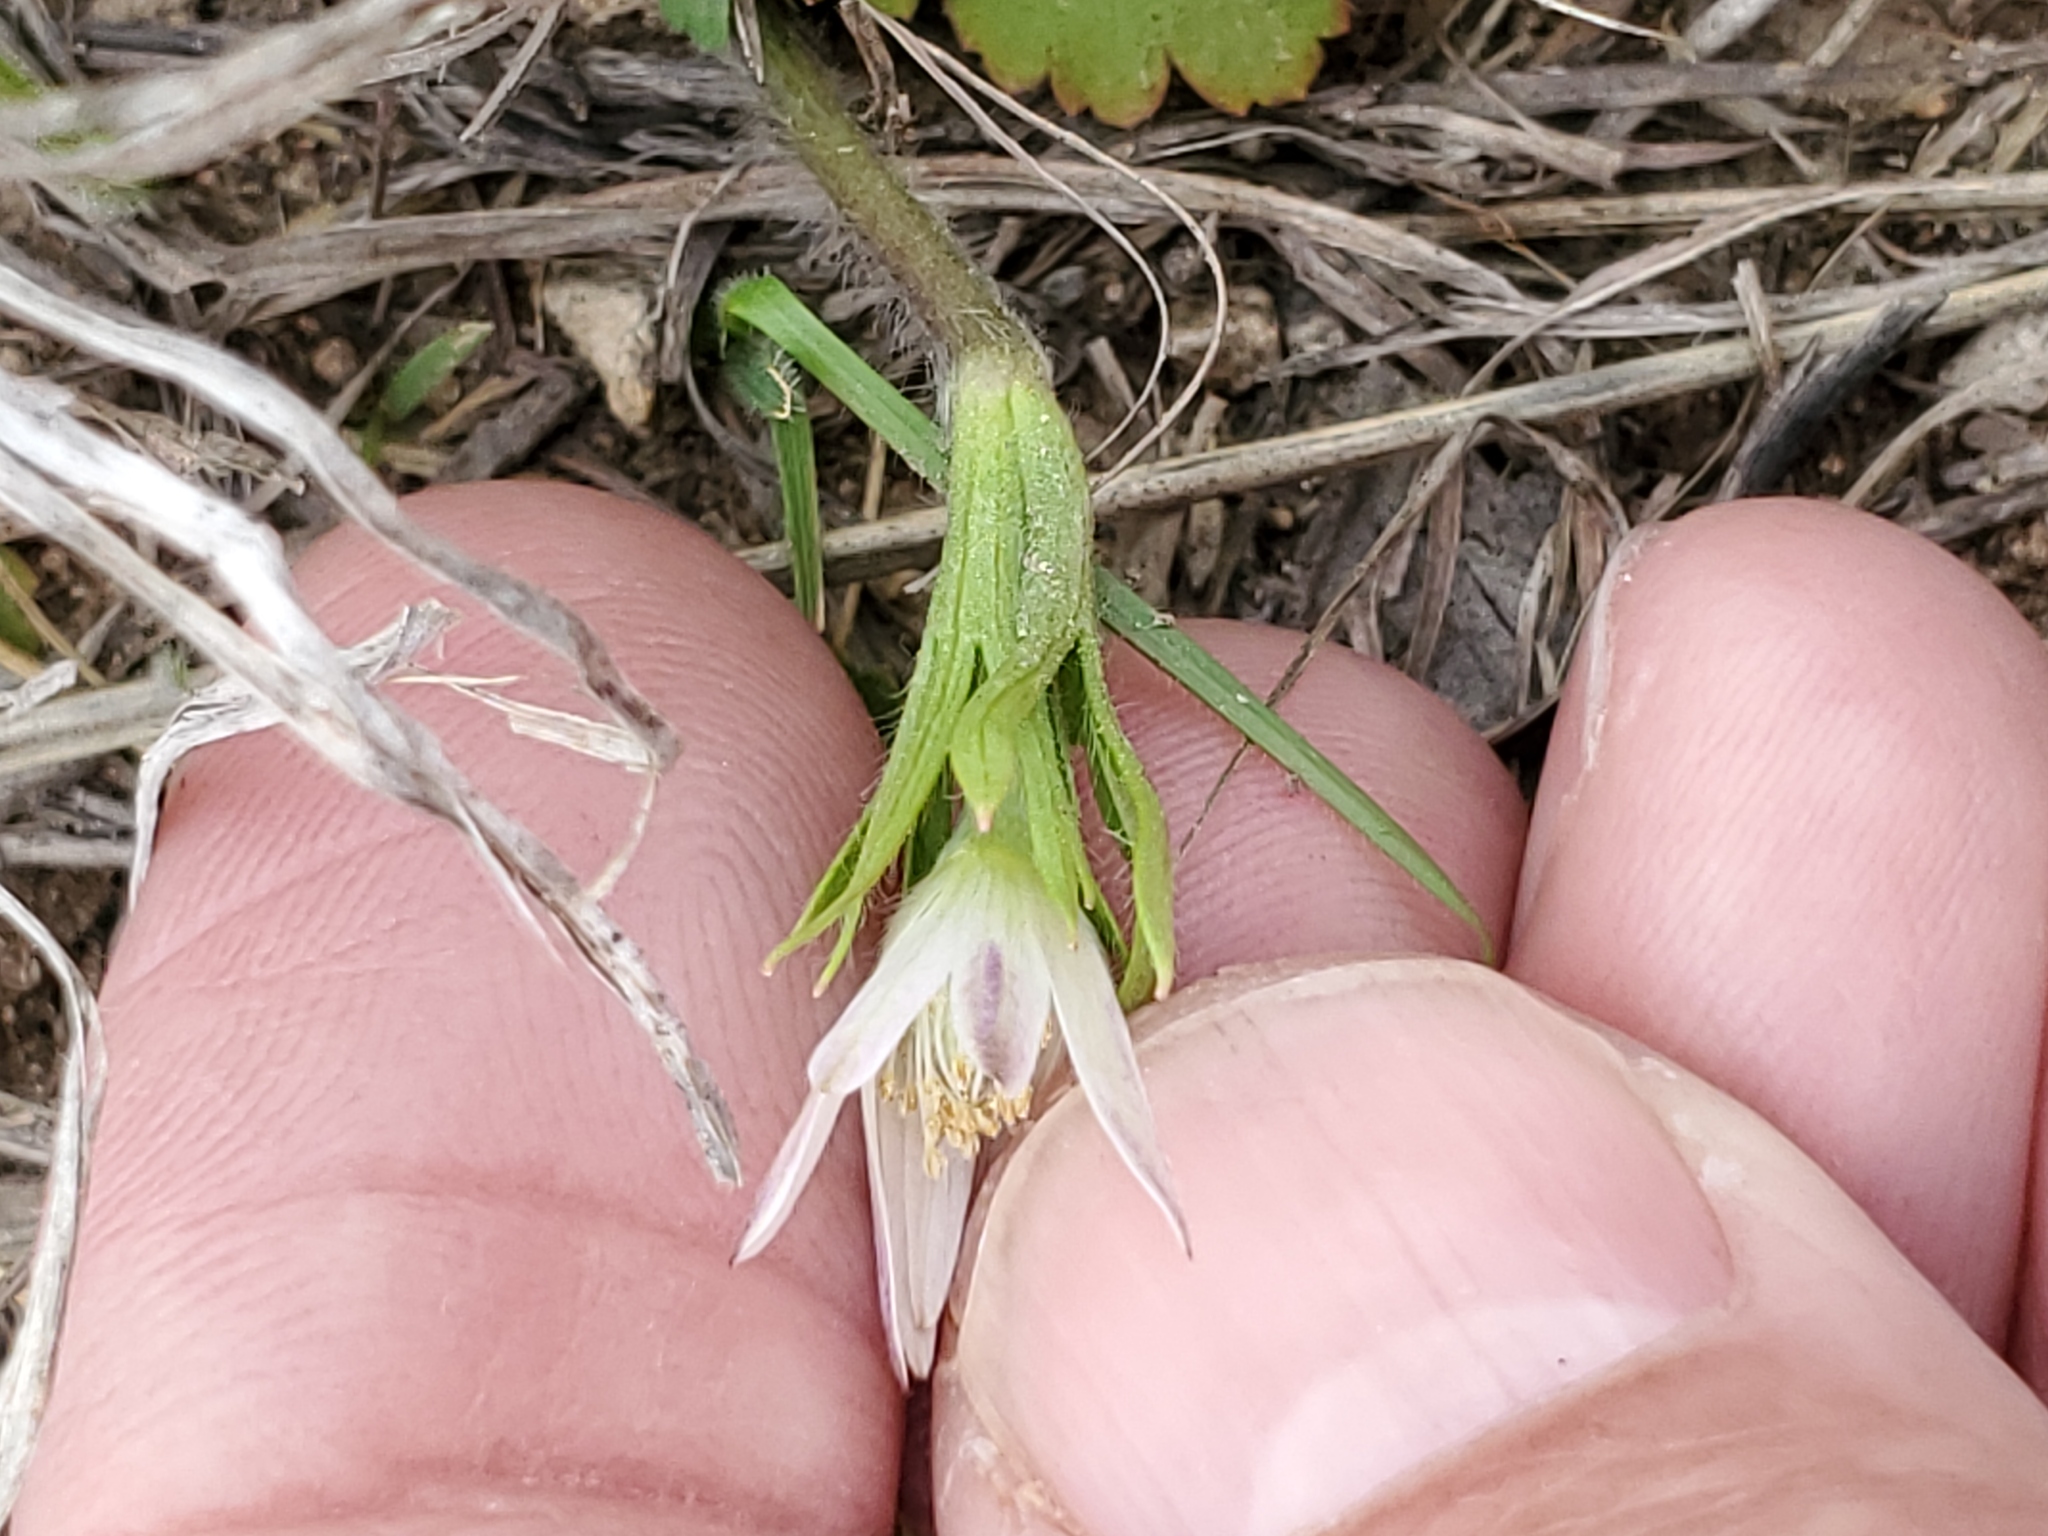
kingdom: Plantae
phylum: Tracheophyta
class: Magnoliopsida
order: Ranunculales
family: Ranunculaceae
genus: Anemone
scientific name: Anemone berlandieri
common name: Ten-petal anemone
